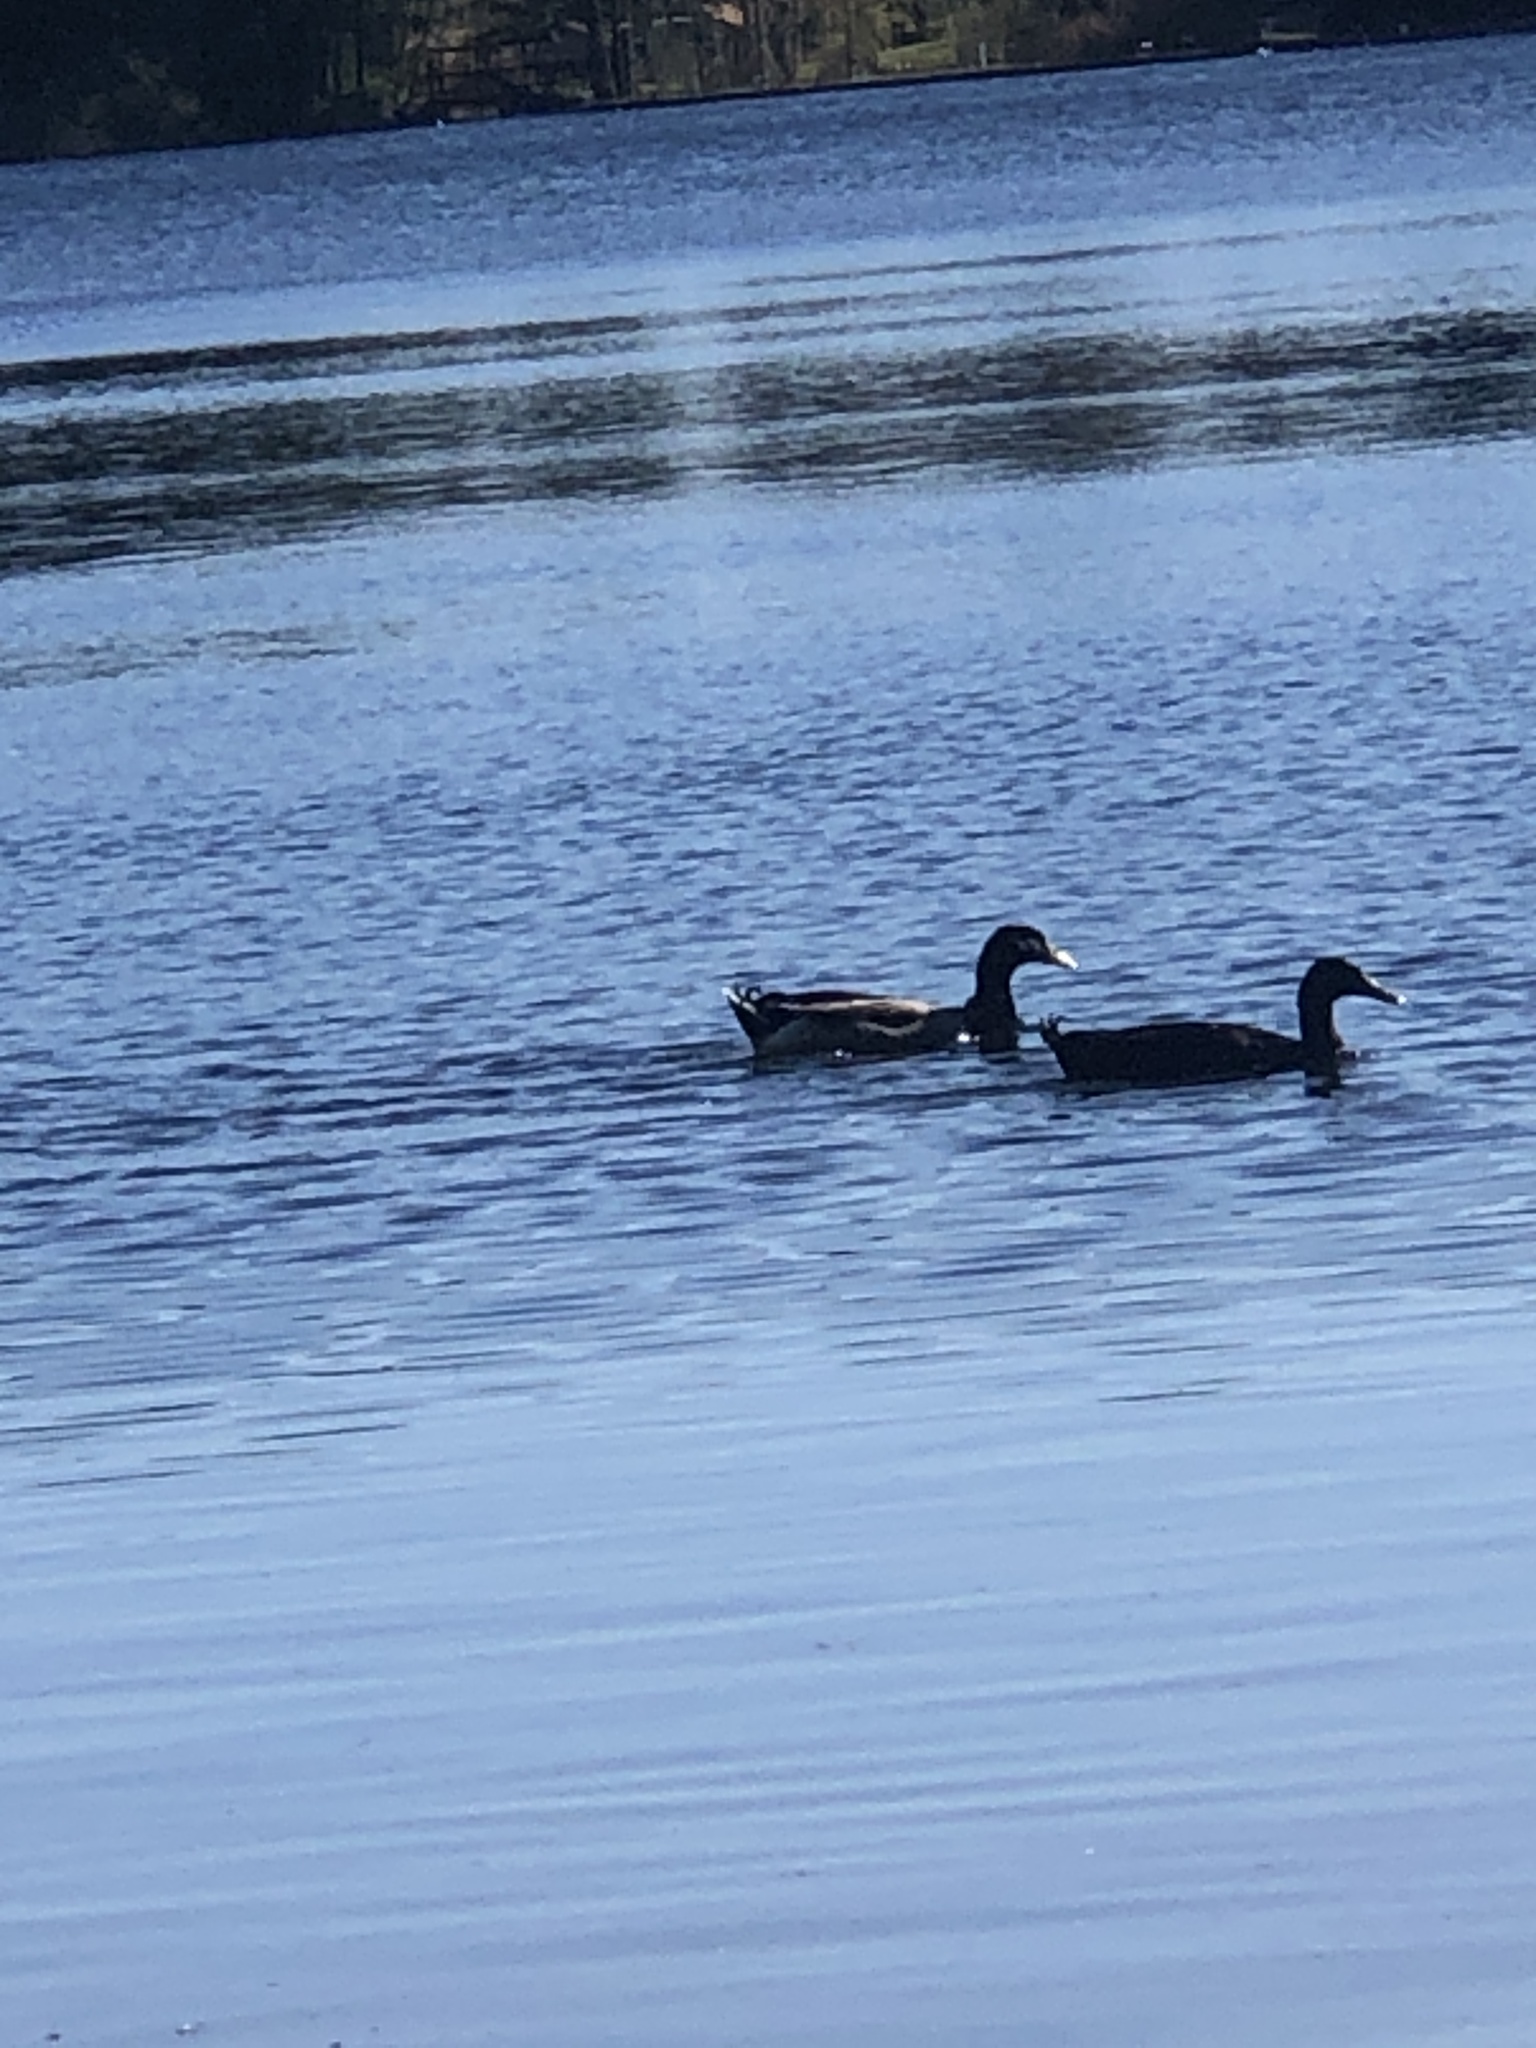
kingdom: Animalia
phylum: Chordata
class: Aves
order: Anseriformes
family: Anatidae
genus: Anas
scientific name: Anas platyrhynchos
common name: Mallard
